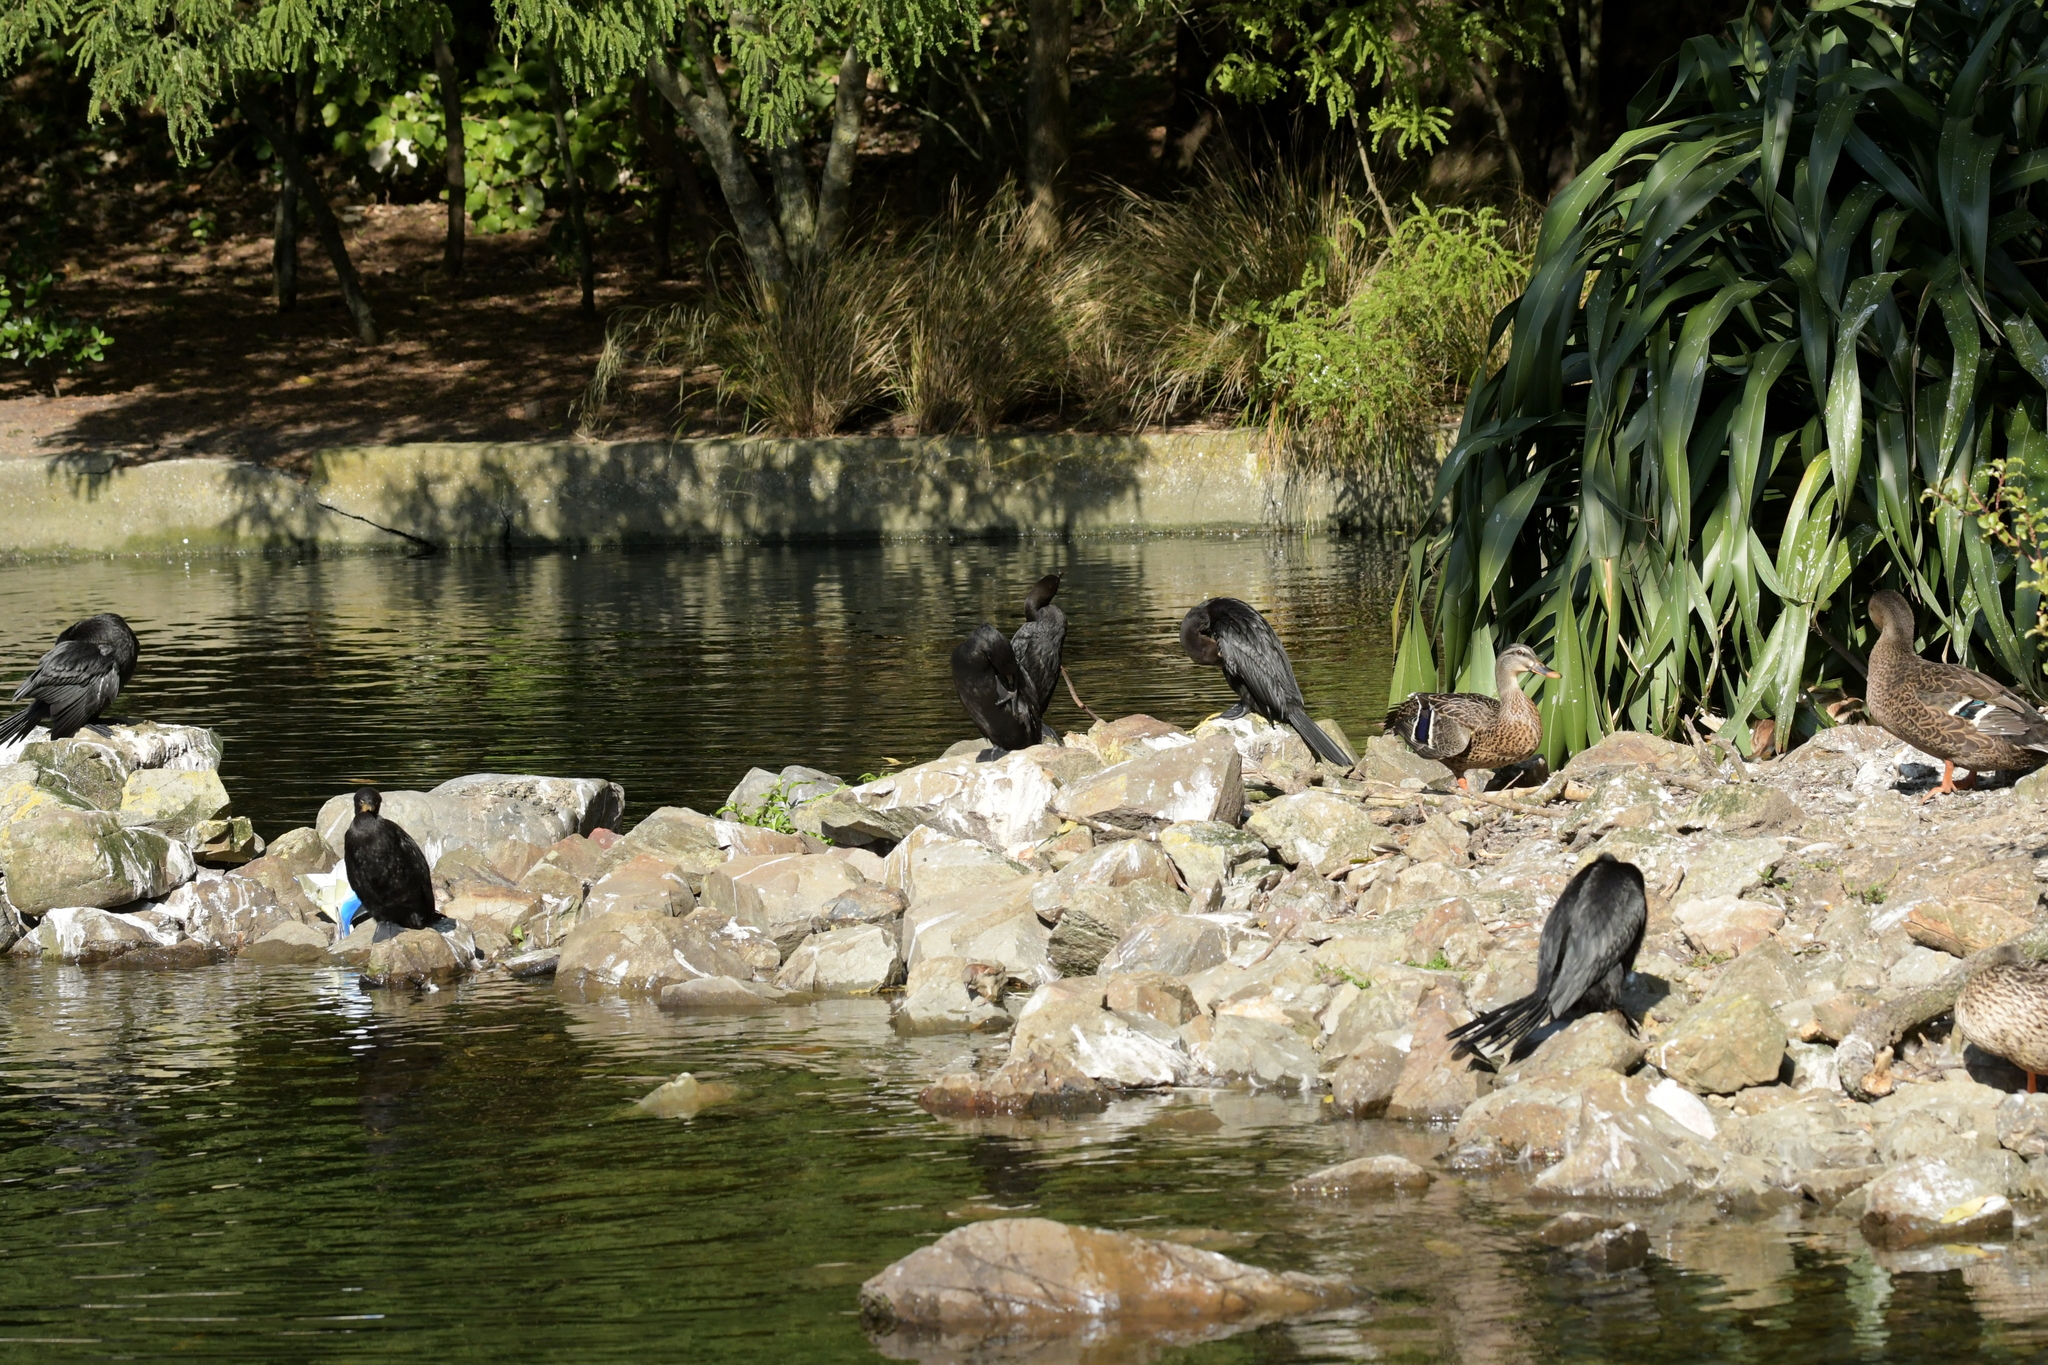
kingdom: Animalia
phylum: Chordata
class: Aves
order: Suliformes
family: Phalacrocoracidae
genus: Microcarbo
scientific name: Microcarbo melanoleucos
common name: Little pied cormorant
